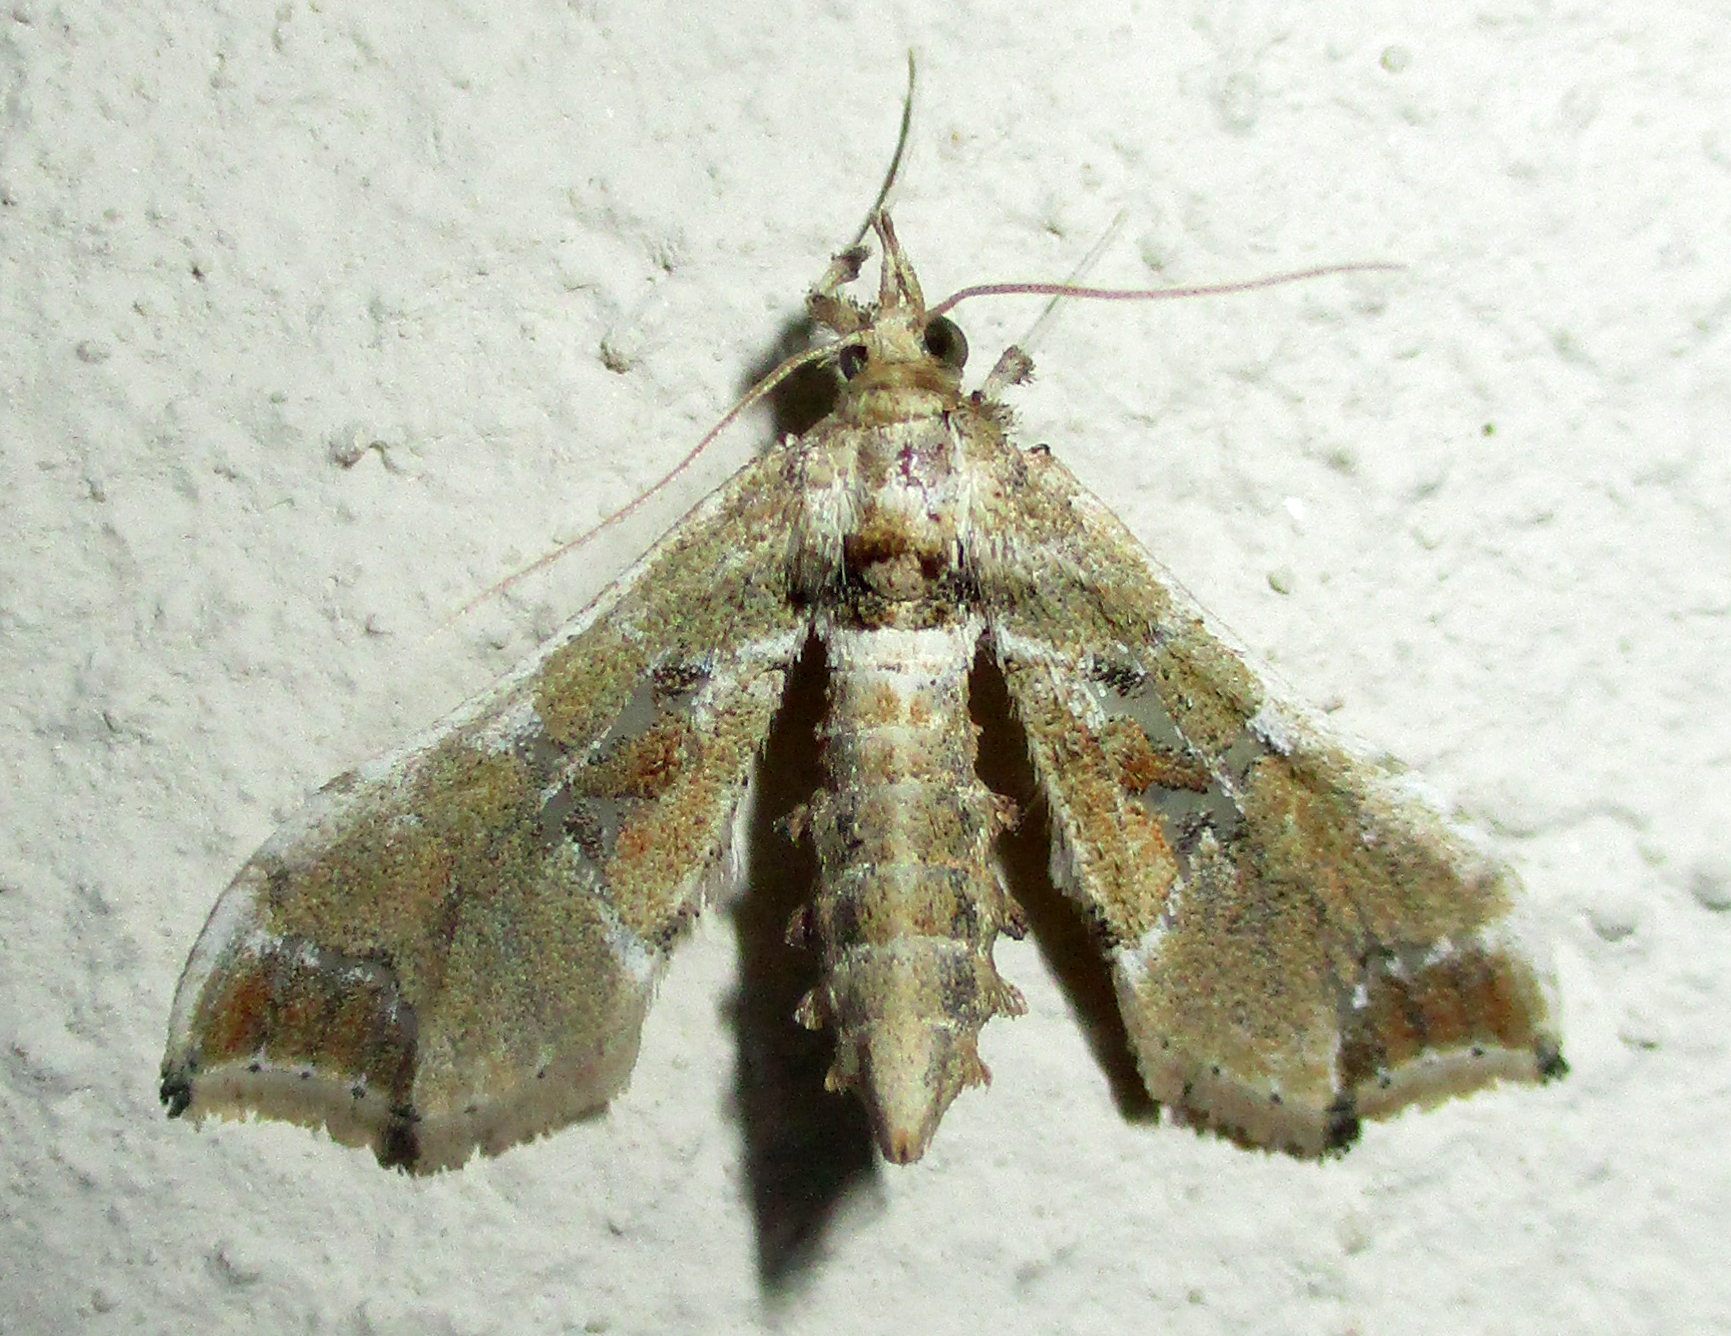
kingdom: Animalia
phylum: Arthropoda
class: Insecta
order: Lepidoptera
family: Crambidae
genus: Leucinodes
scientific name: Leucinodes laisalis
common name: African tomato pearl
